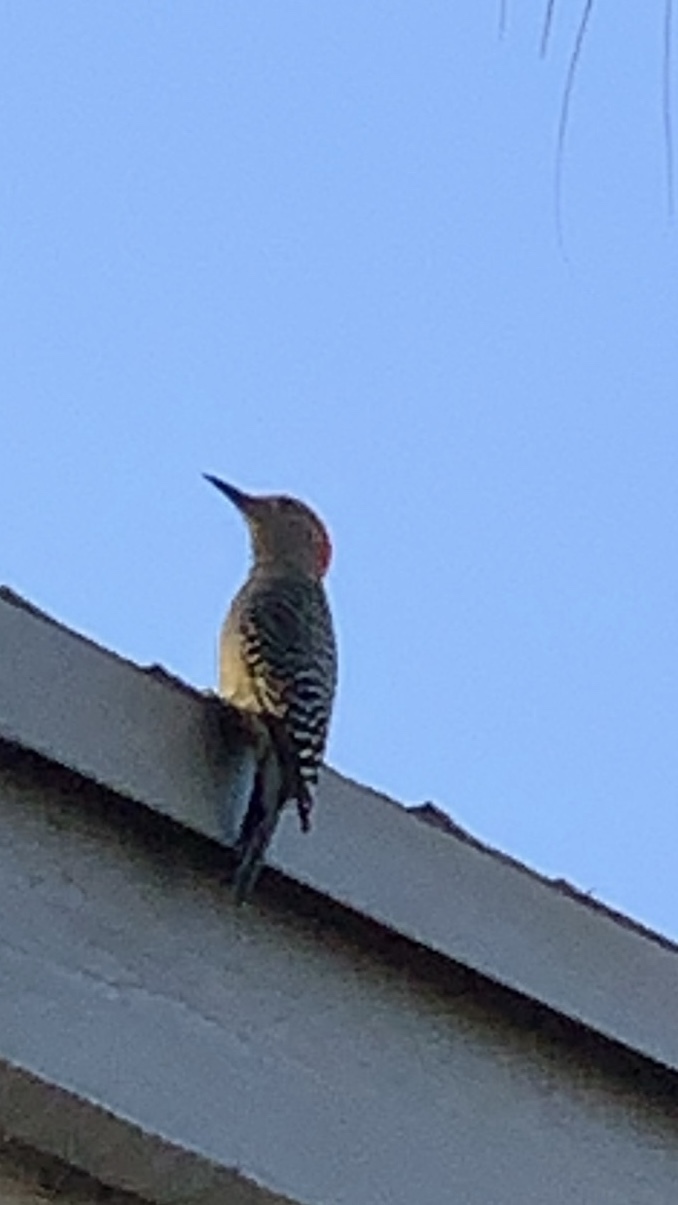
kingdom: Animalia
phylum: Chordata
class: Aves
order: Piciformes
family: Picidae
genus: Melanerpes
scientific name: Melanerpes carolinus
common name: Red-bellied woodpecker
